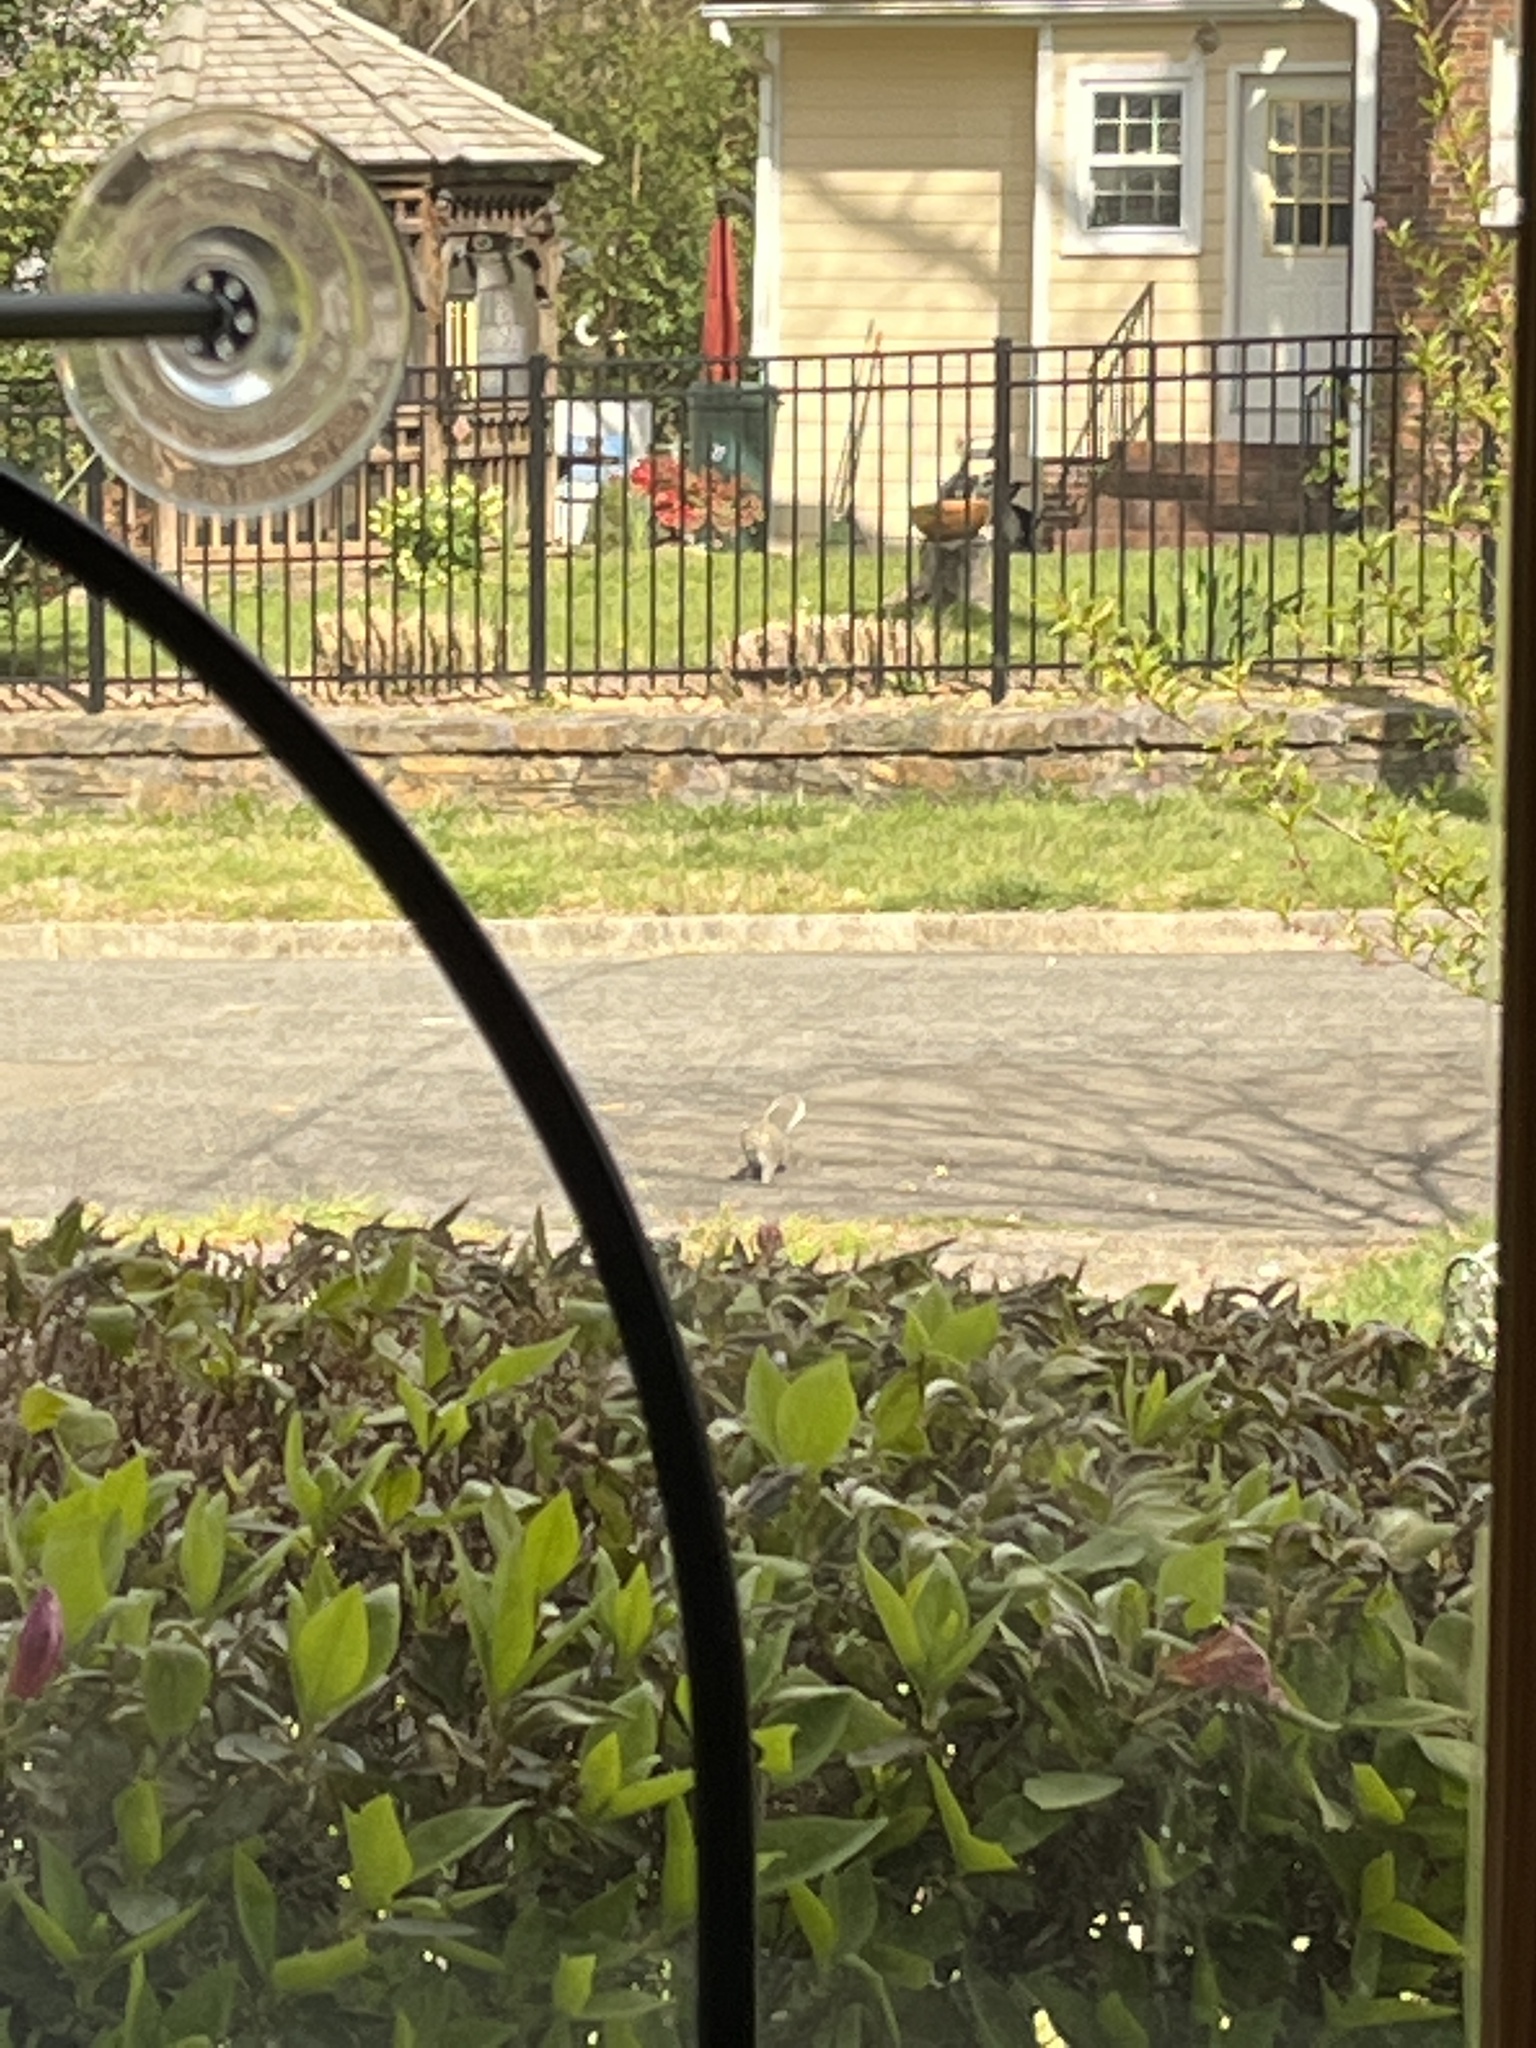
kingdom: Animalia
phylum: Chordata
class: Mammalia
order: Rodentia
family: Sciuridae
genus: Sciurus
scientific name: Sciurus carolinensis
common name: Eastern gray squirrel
